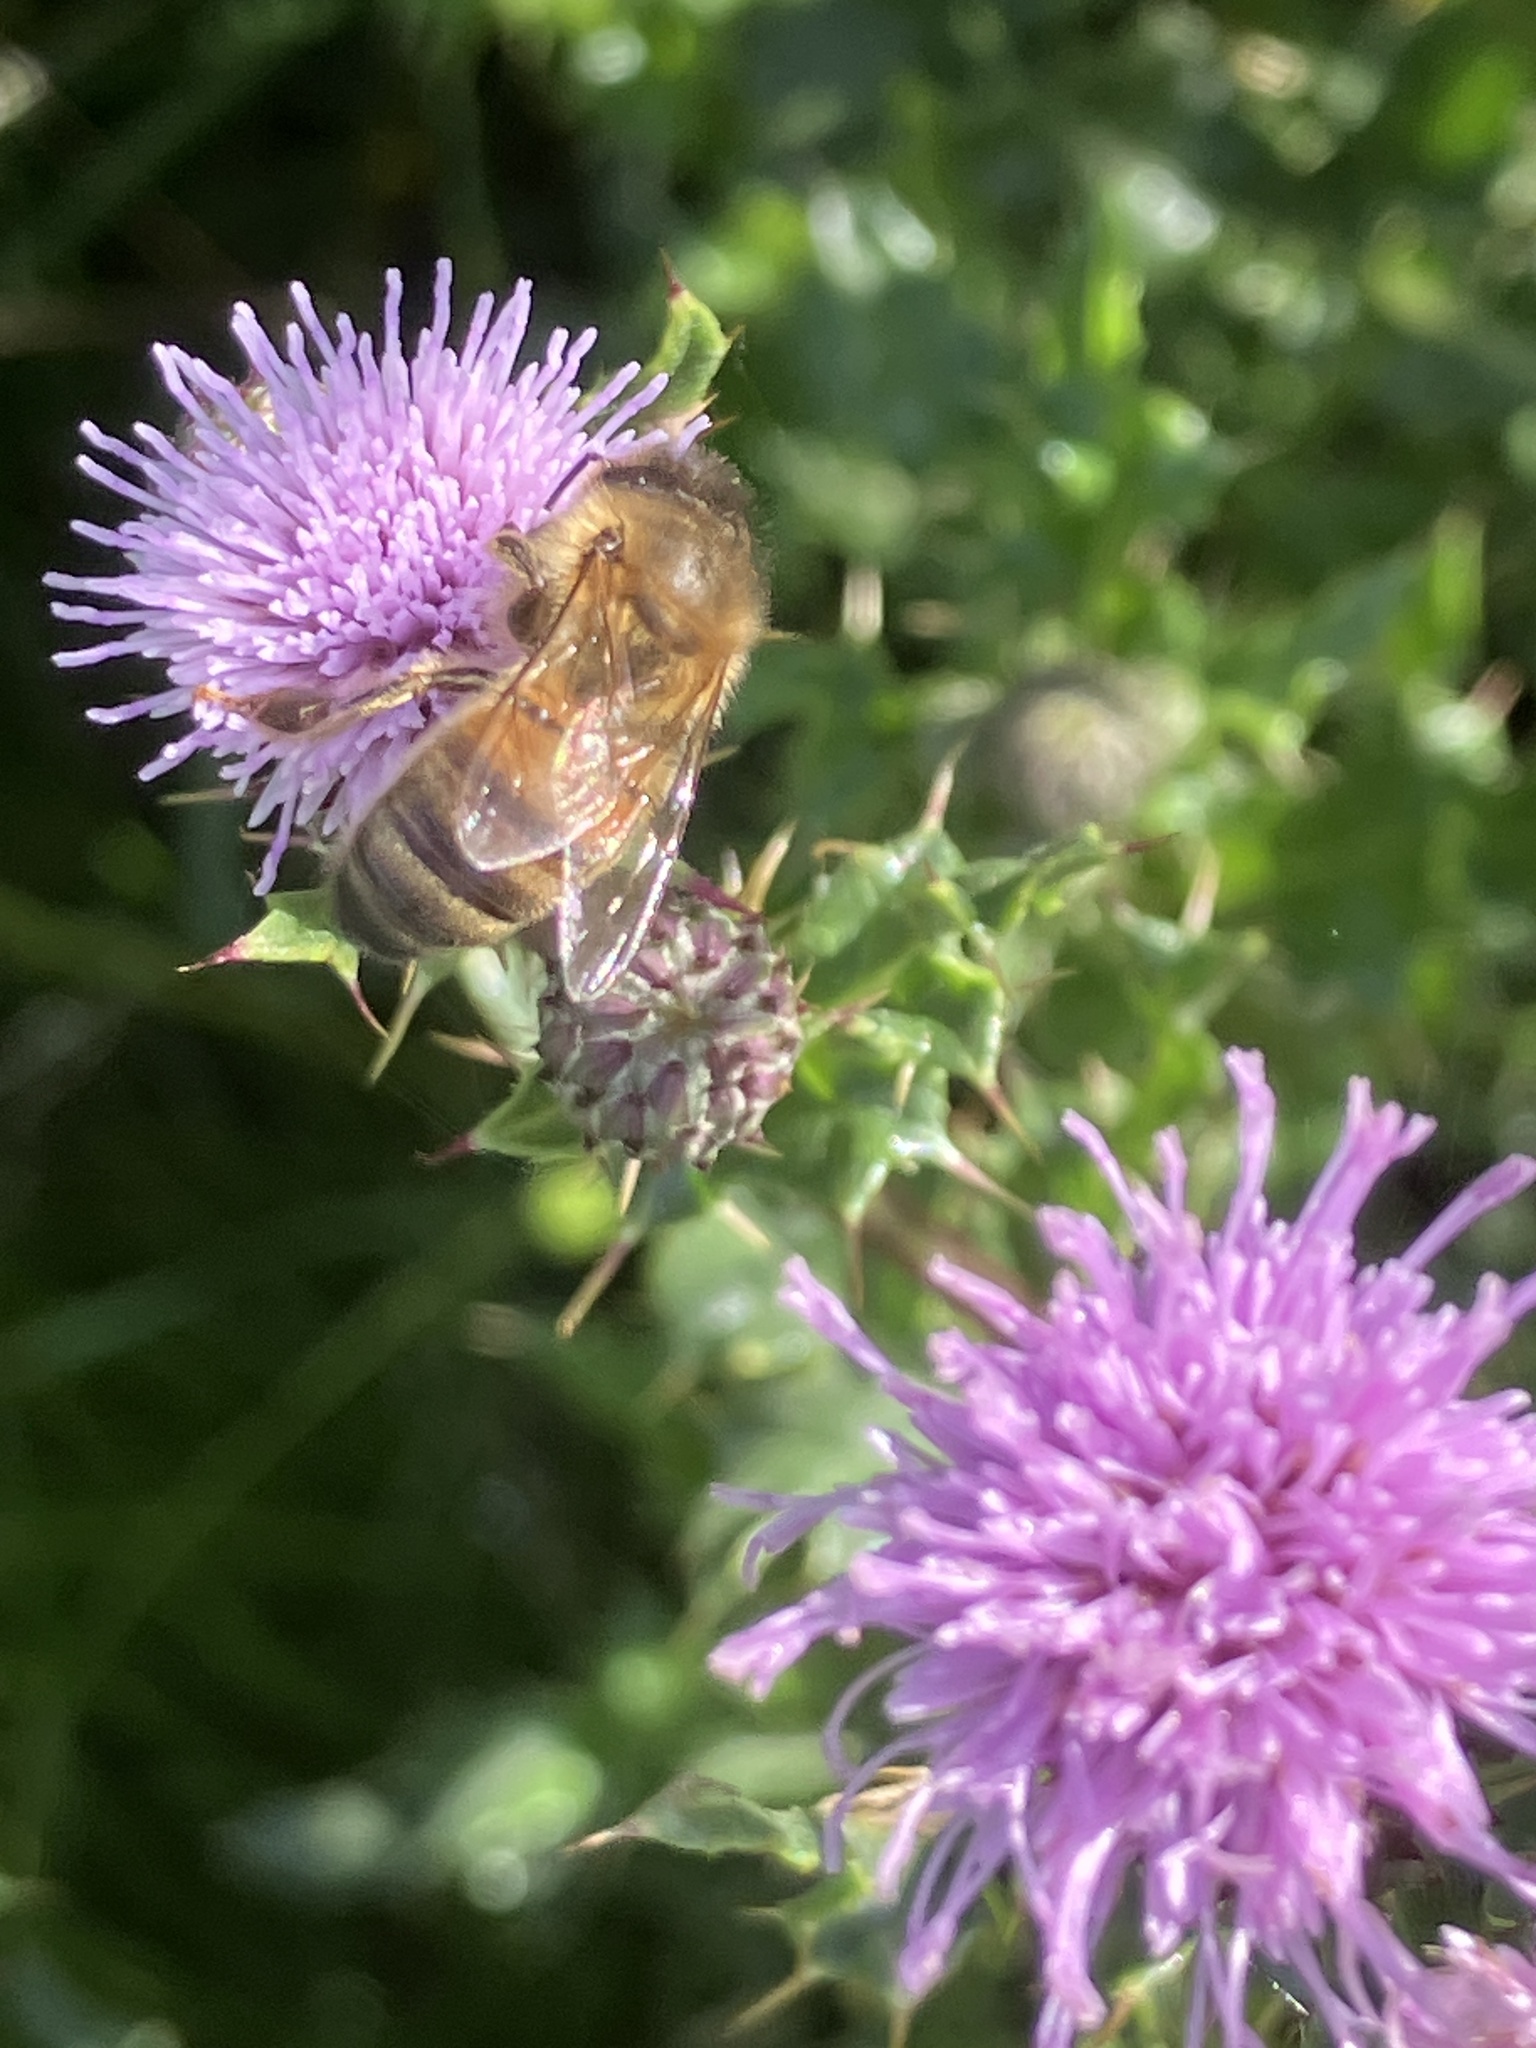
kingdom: Animalia
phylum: Arthropoda
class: Insecta
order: Hymenoptera
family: Apidae
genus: Apis
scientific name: Apis mellifera
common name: Honey bee
